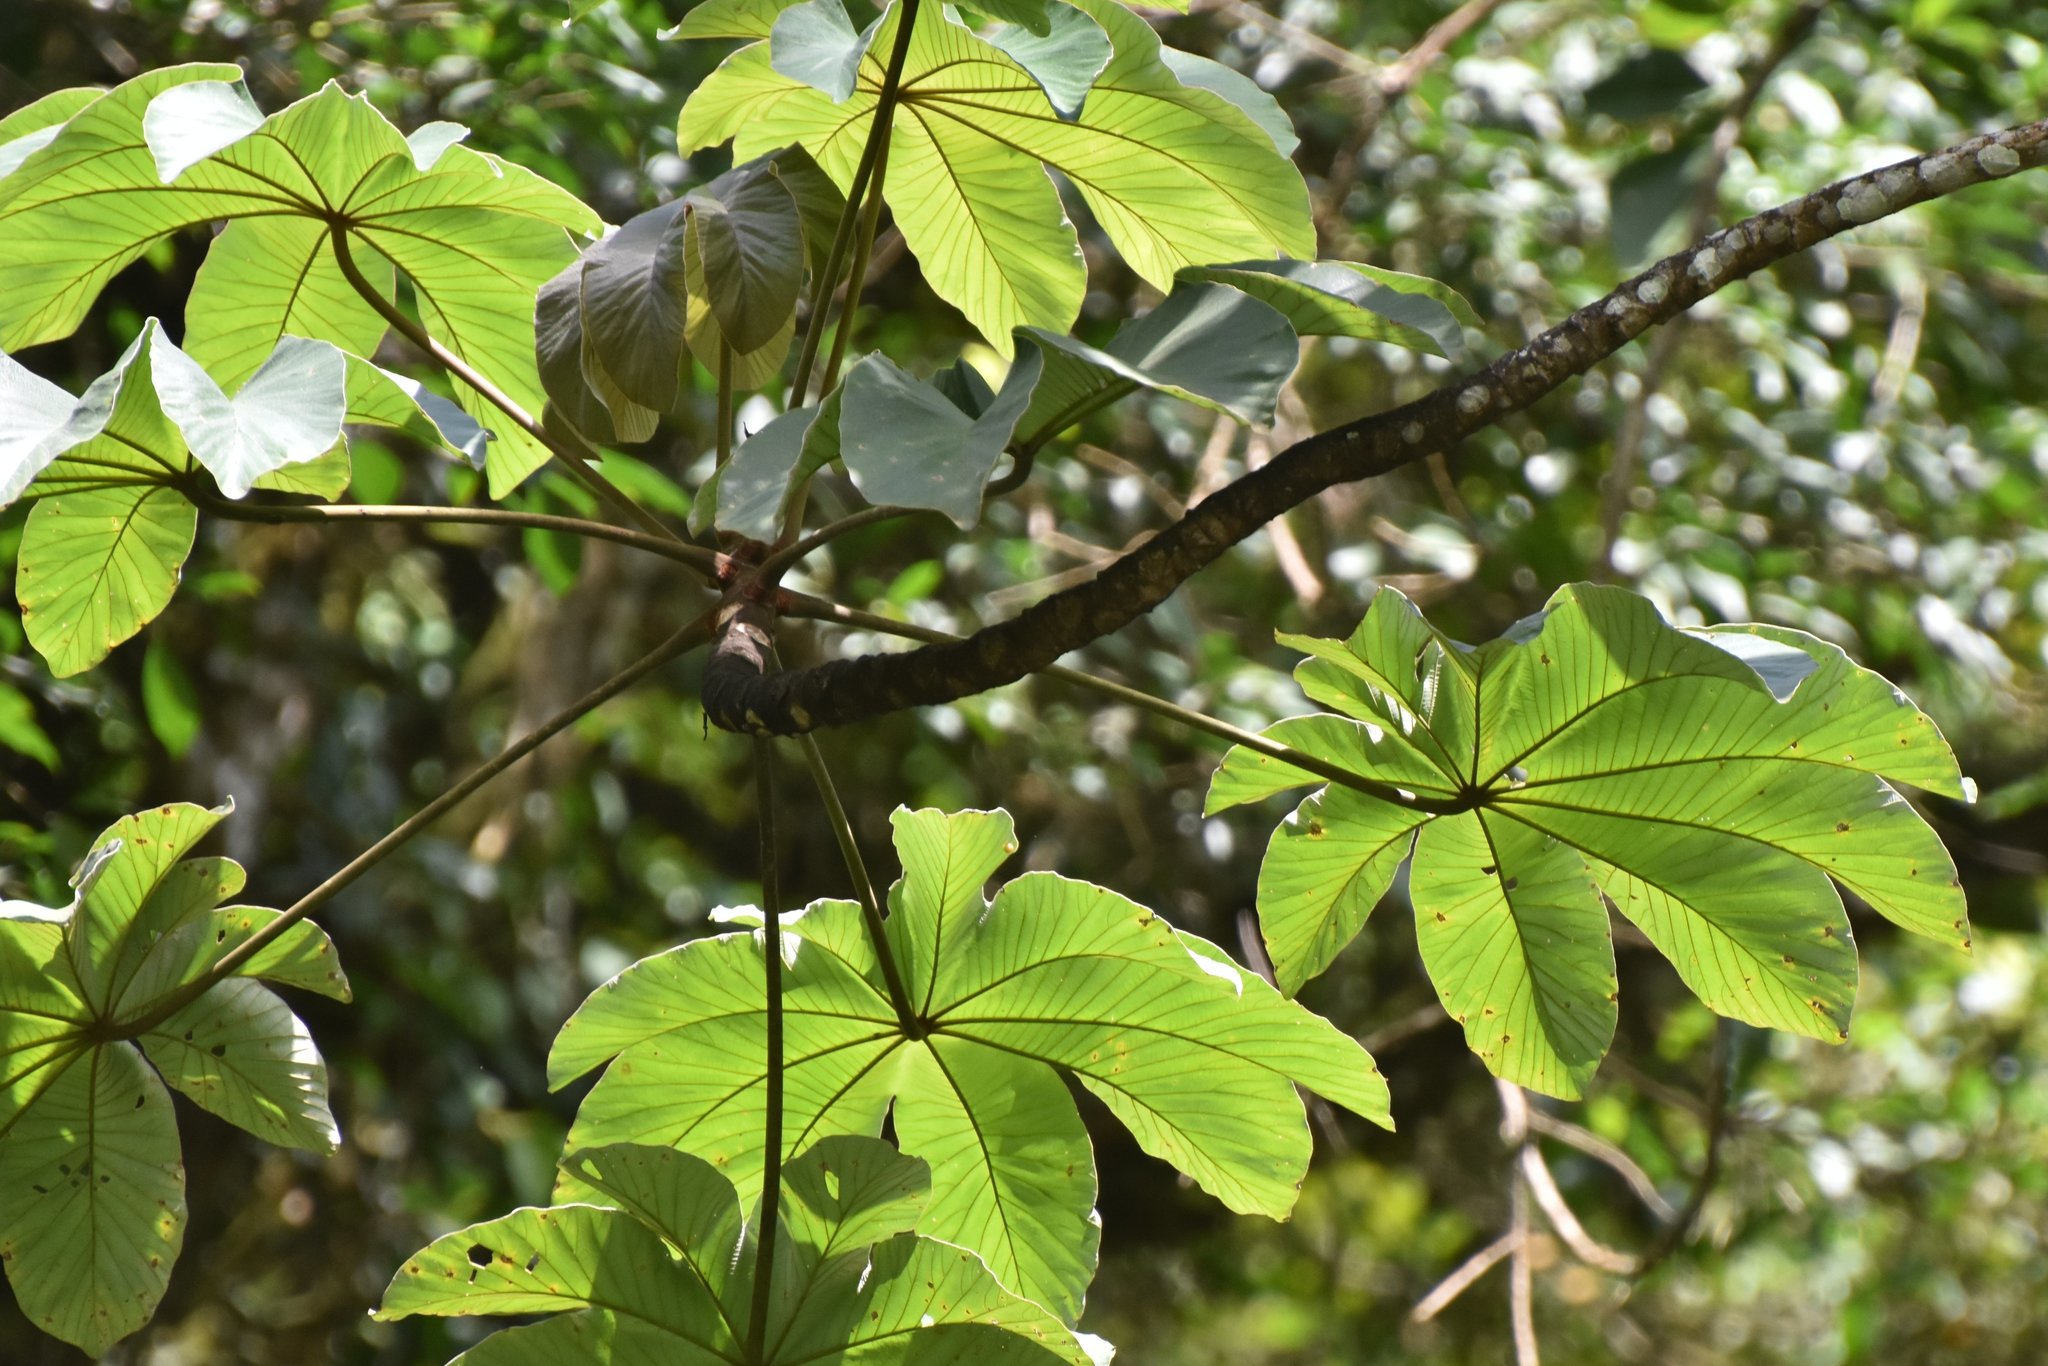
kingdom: Plantae
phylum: Tracheophyta
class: Magnoliopsida
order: Rosales
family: Urticaceae
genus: Cecropia
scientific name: Cecropia peltata
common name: Trumpet-tree
